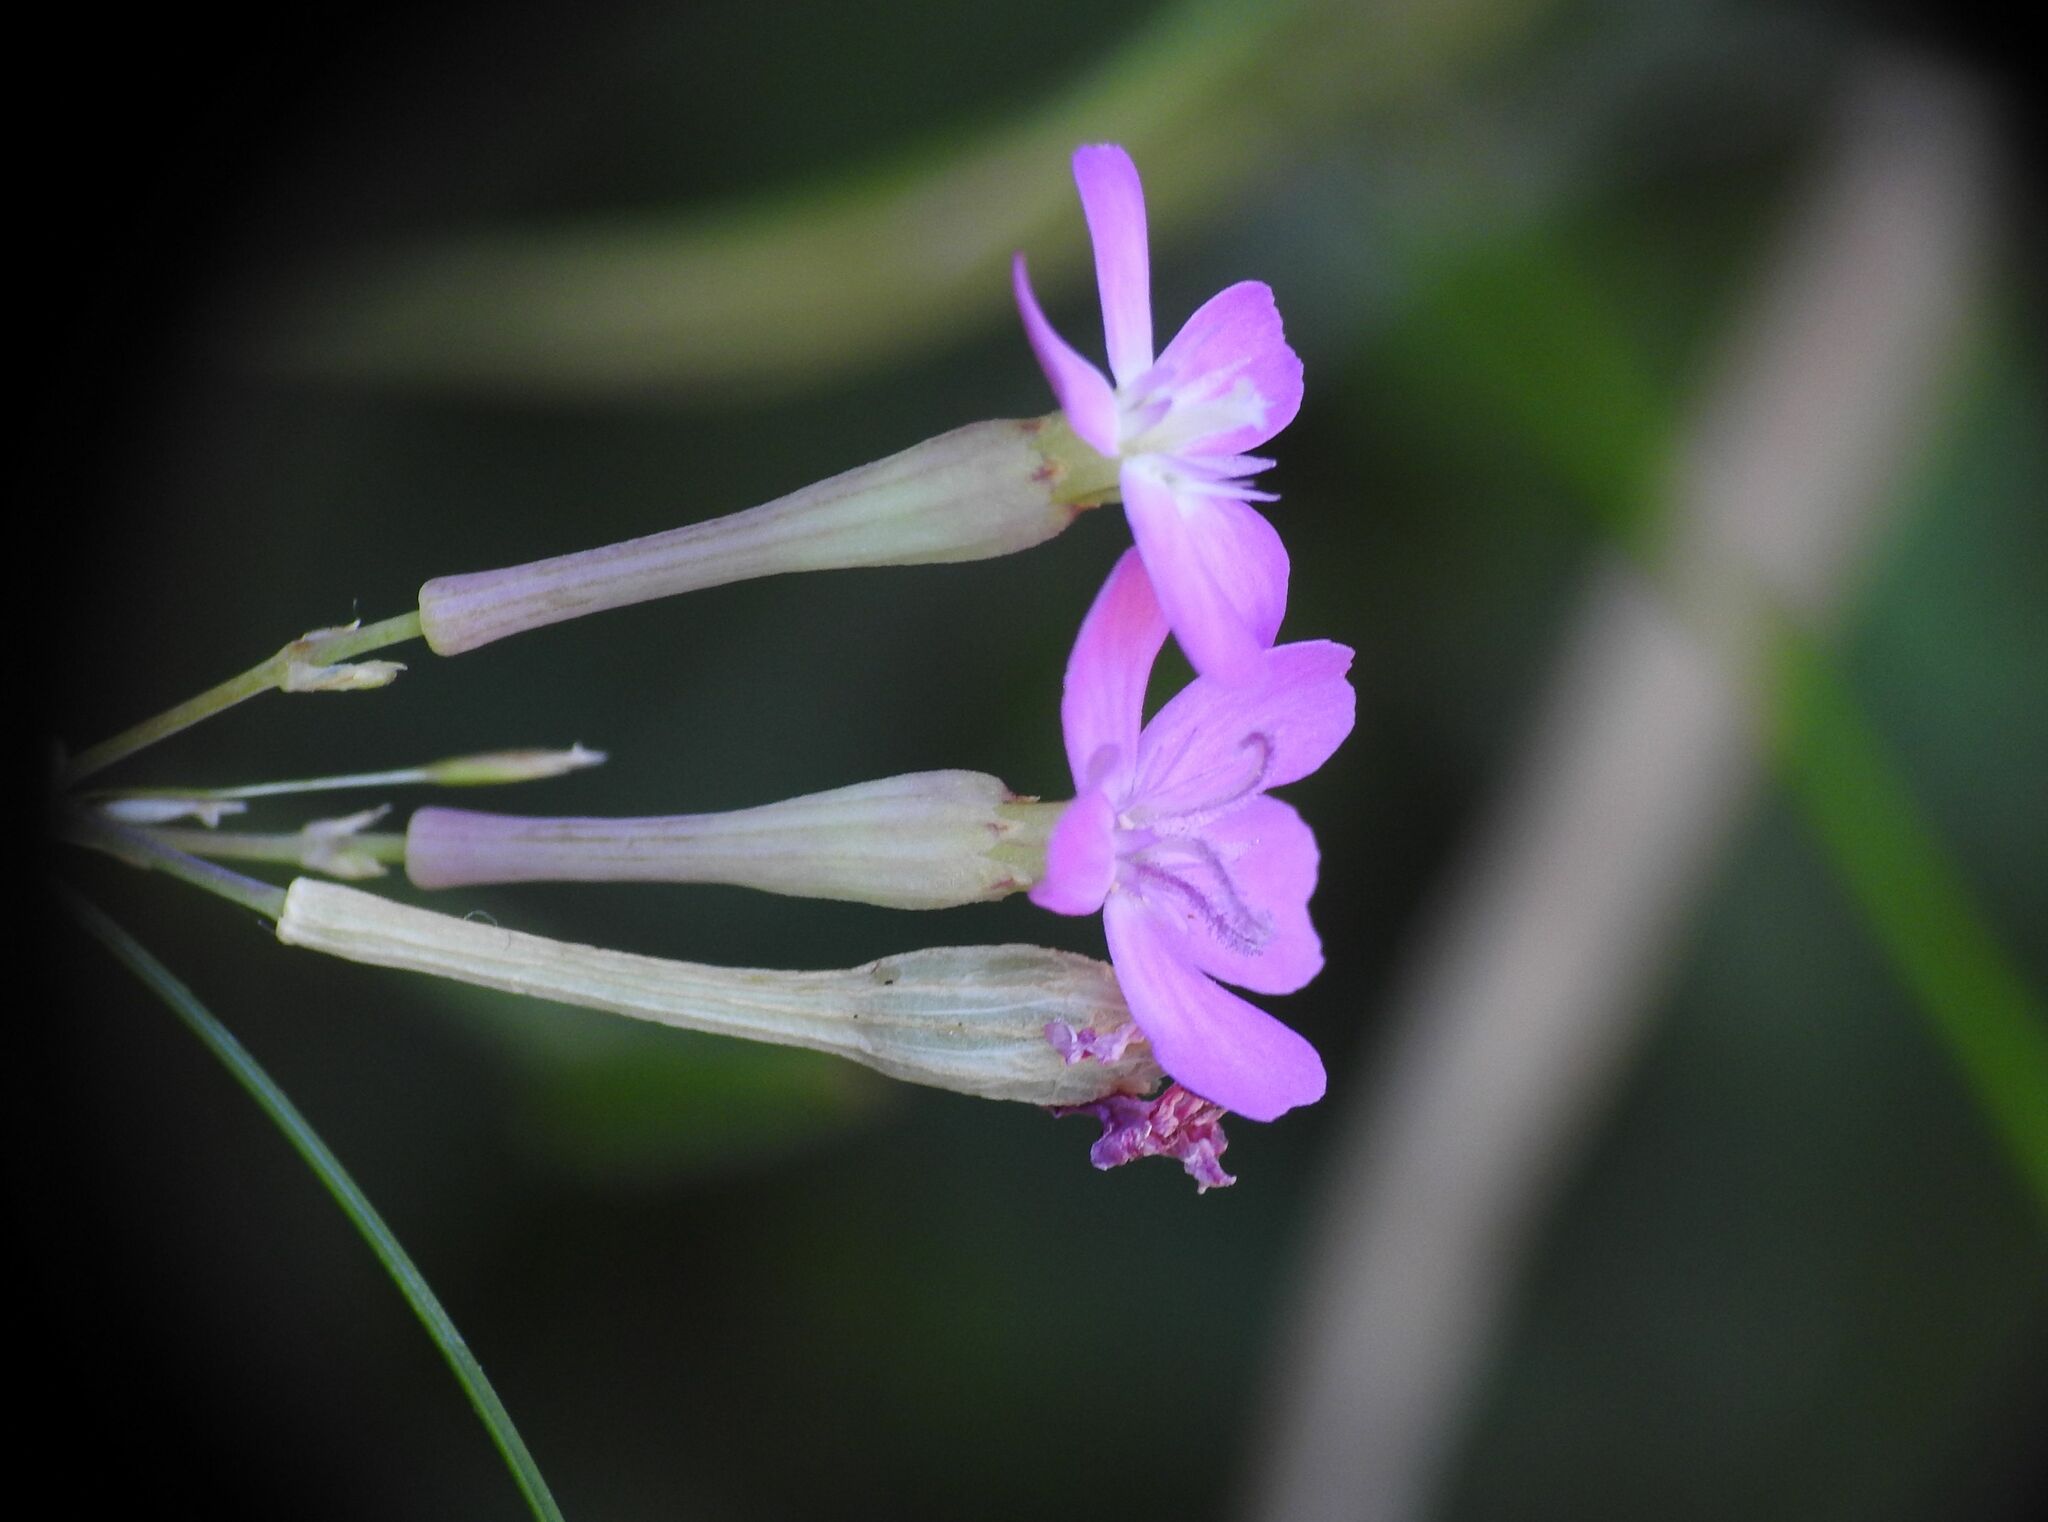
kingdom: Plantae
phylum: Tracheophyta
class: Magnoliopsida
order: Caryophyllales
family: Caryophyllaceae
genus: Atocion
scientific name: Atocion armeria
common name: Sweet william catchfly
